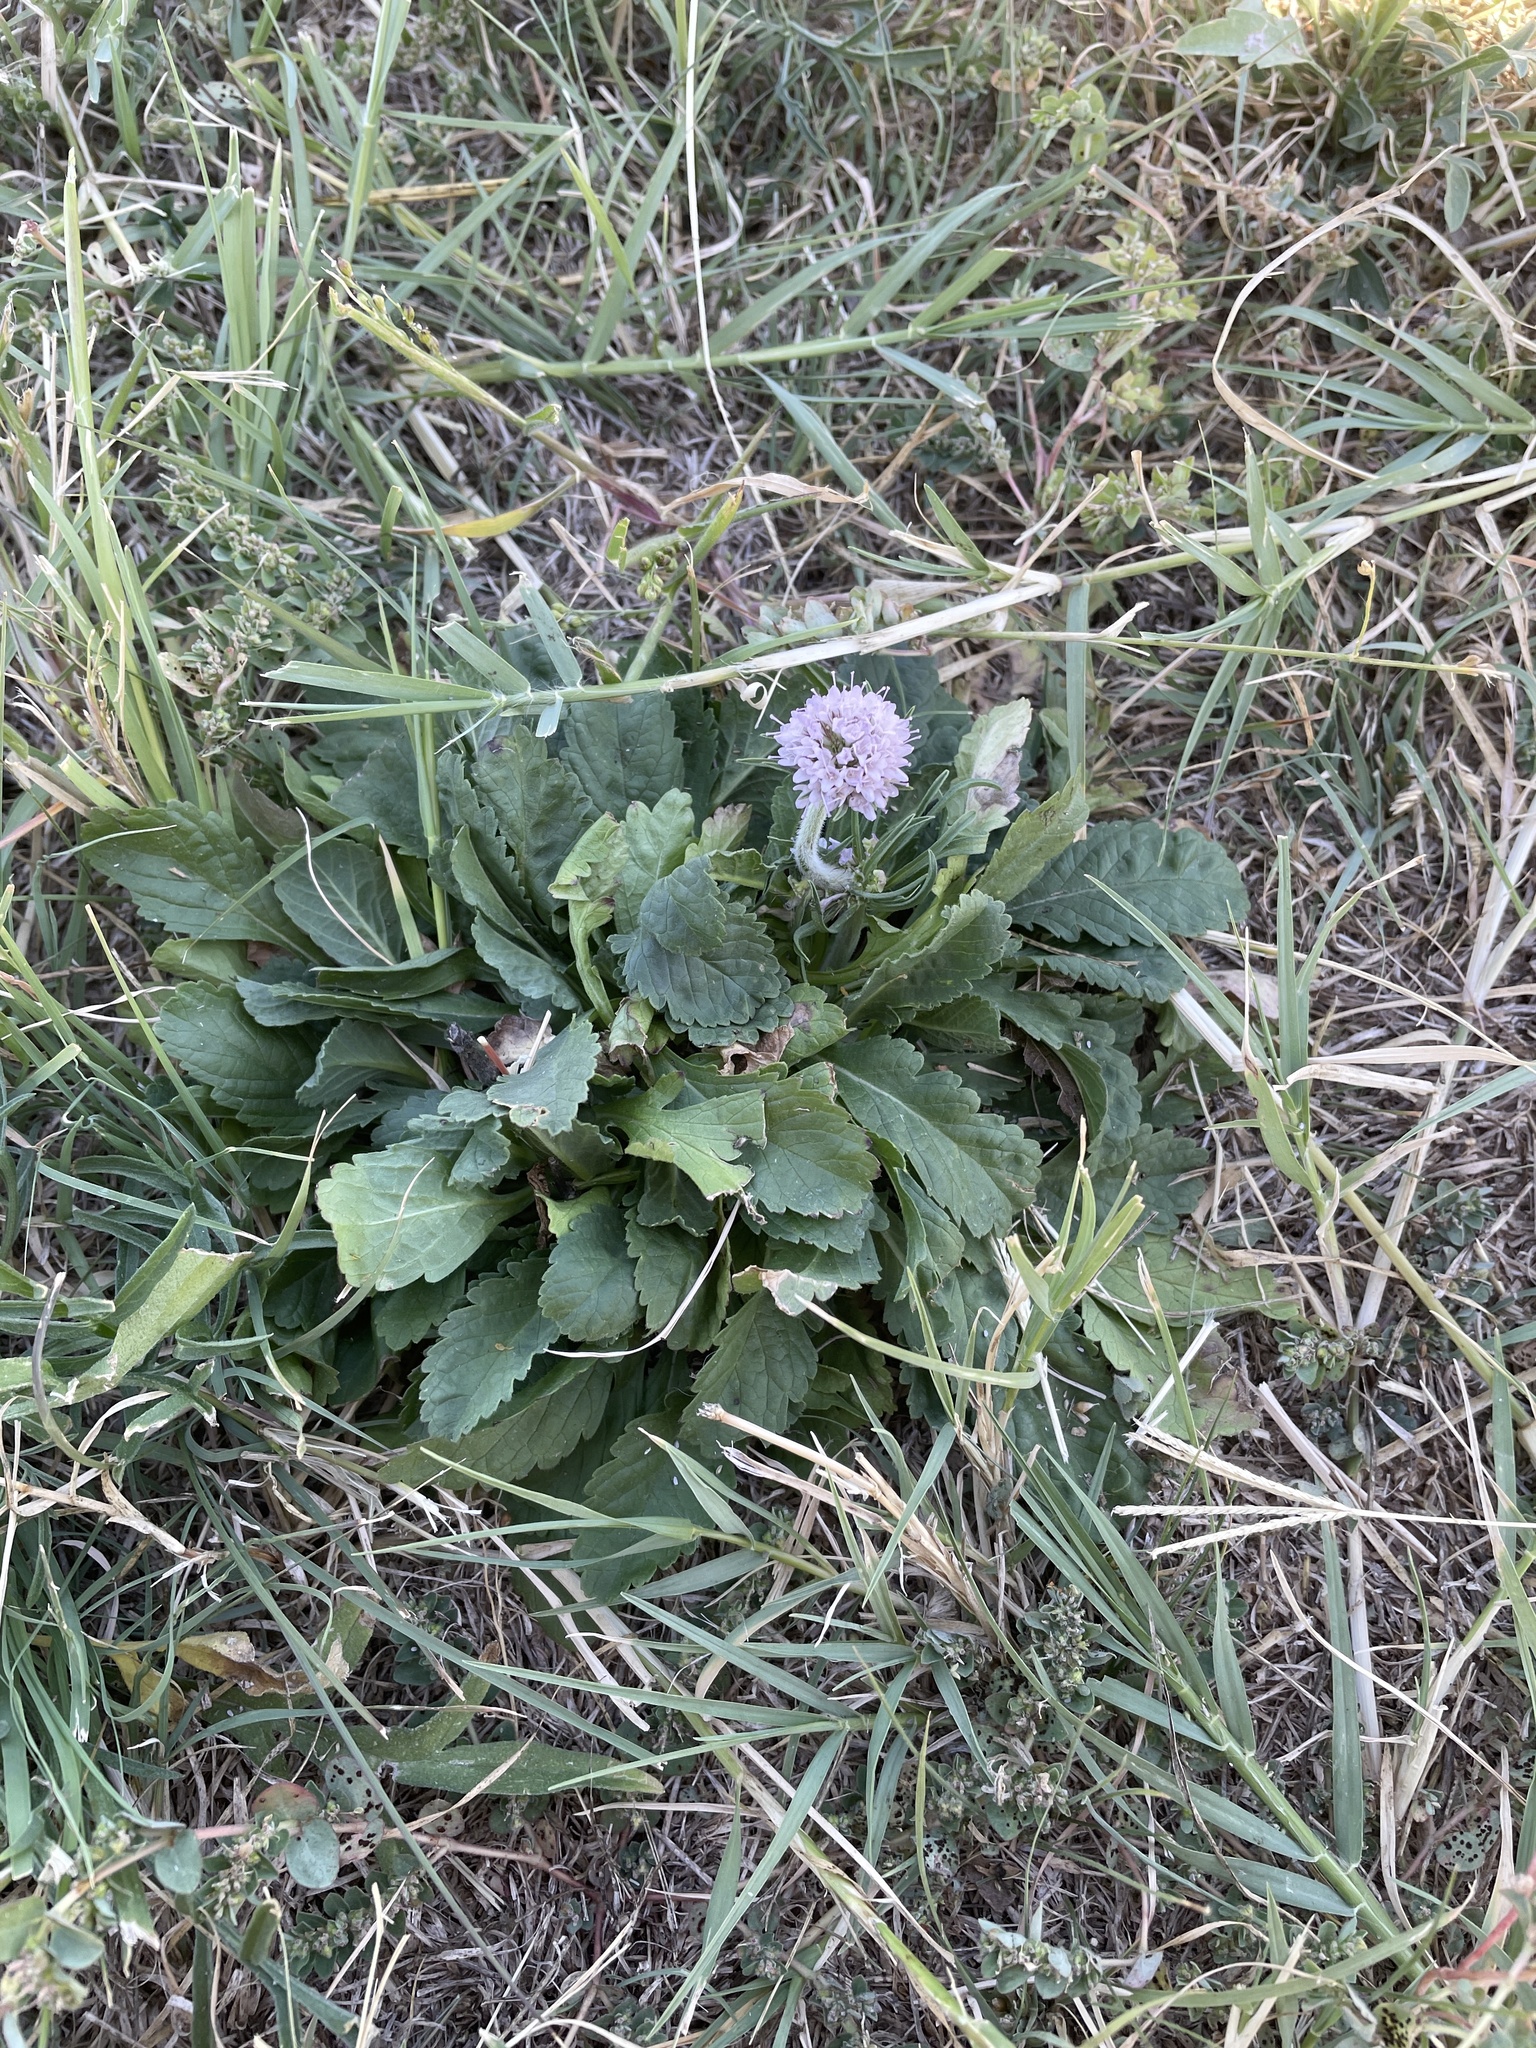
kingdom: Plantae
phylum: Tracheophyta
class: Magnoliopsida
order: Dipsacales
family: Caprifoliaceae
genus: Sixalix
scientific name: Sixalix atropurpurea
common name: Sweet scabious
